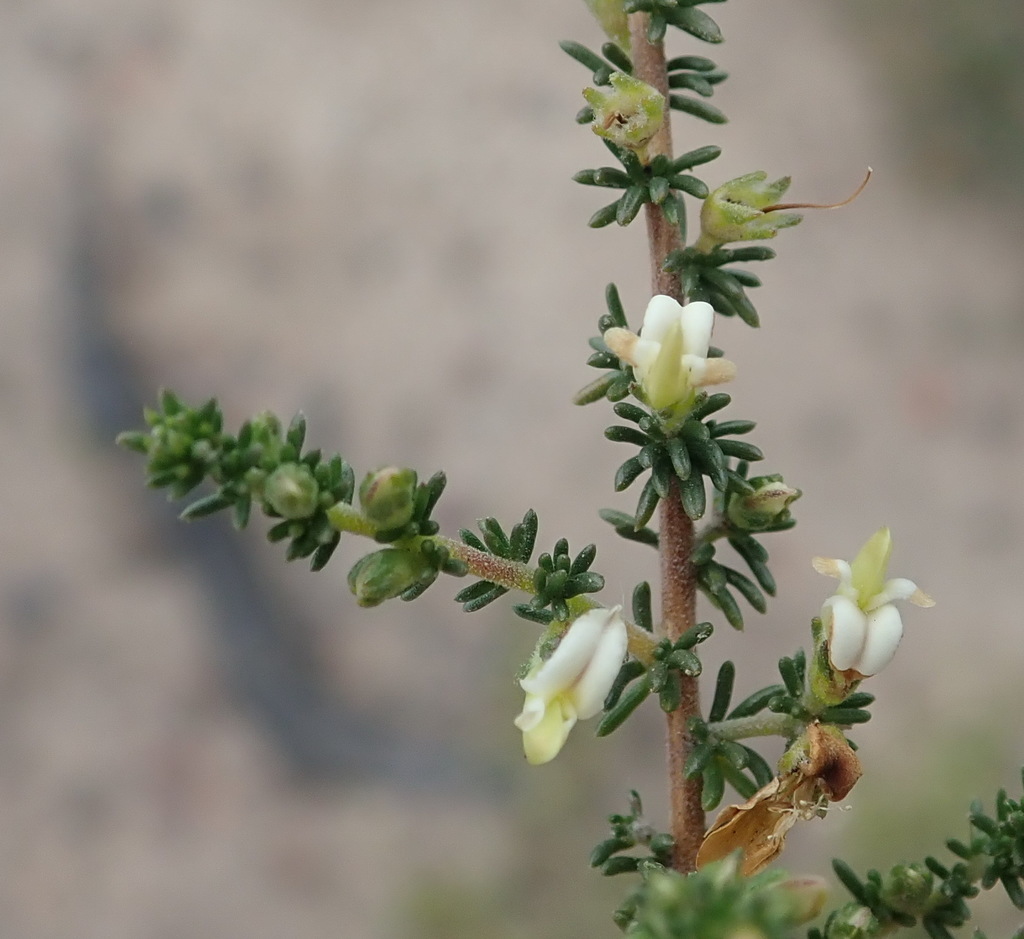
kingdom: Plantae
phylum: Tracheophyta
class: Magnoliopsida
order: Fabales
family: Fabaceae
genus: Aspalathus
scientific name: Aspalathus hispida
